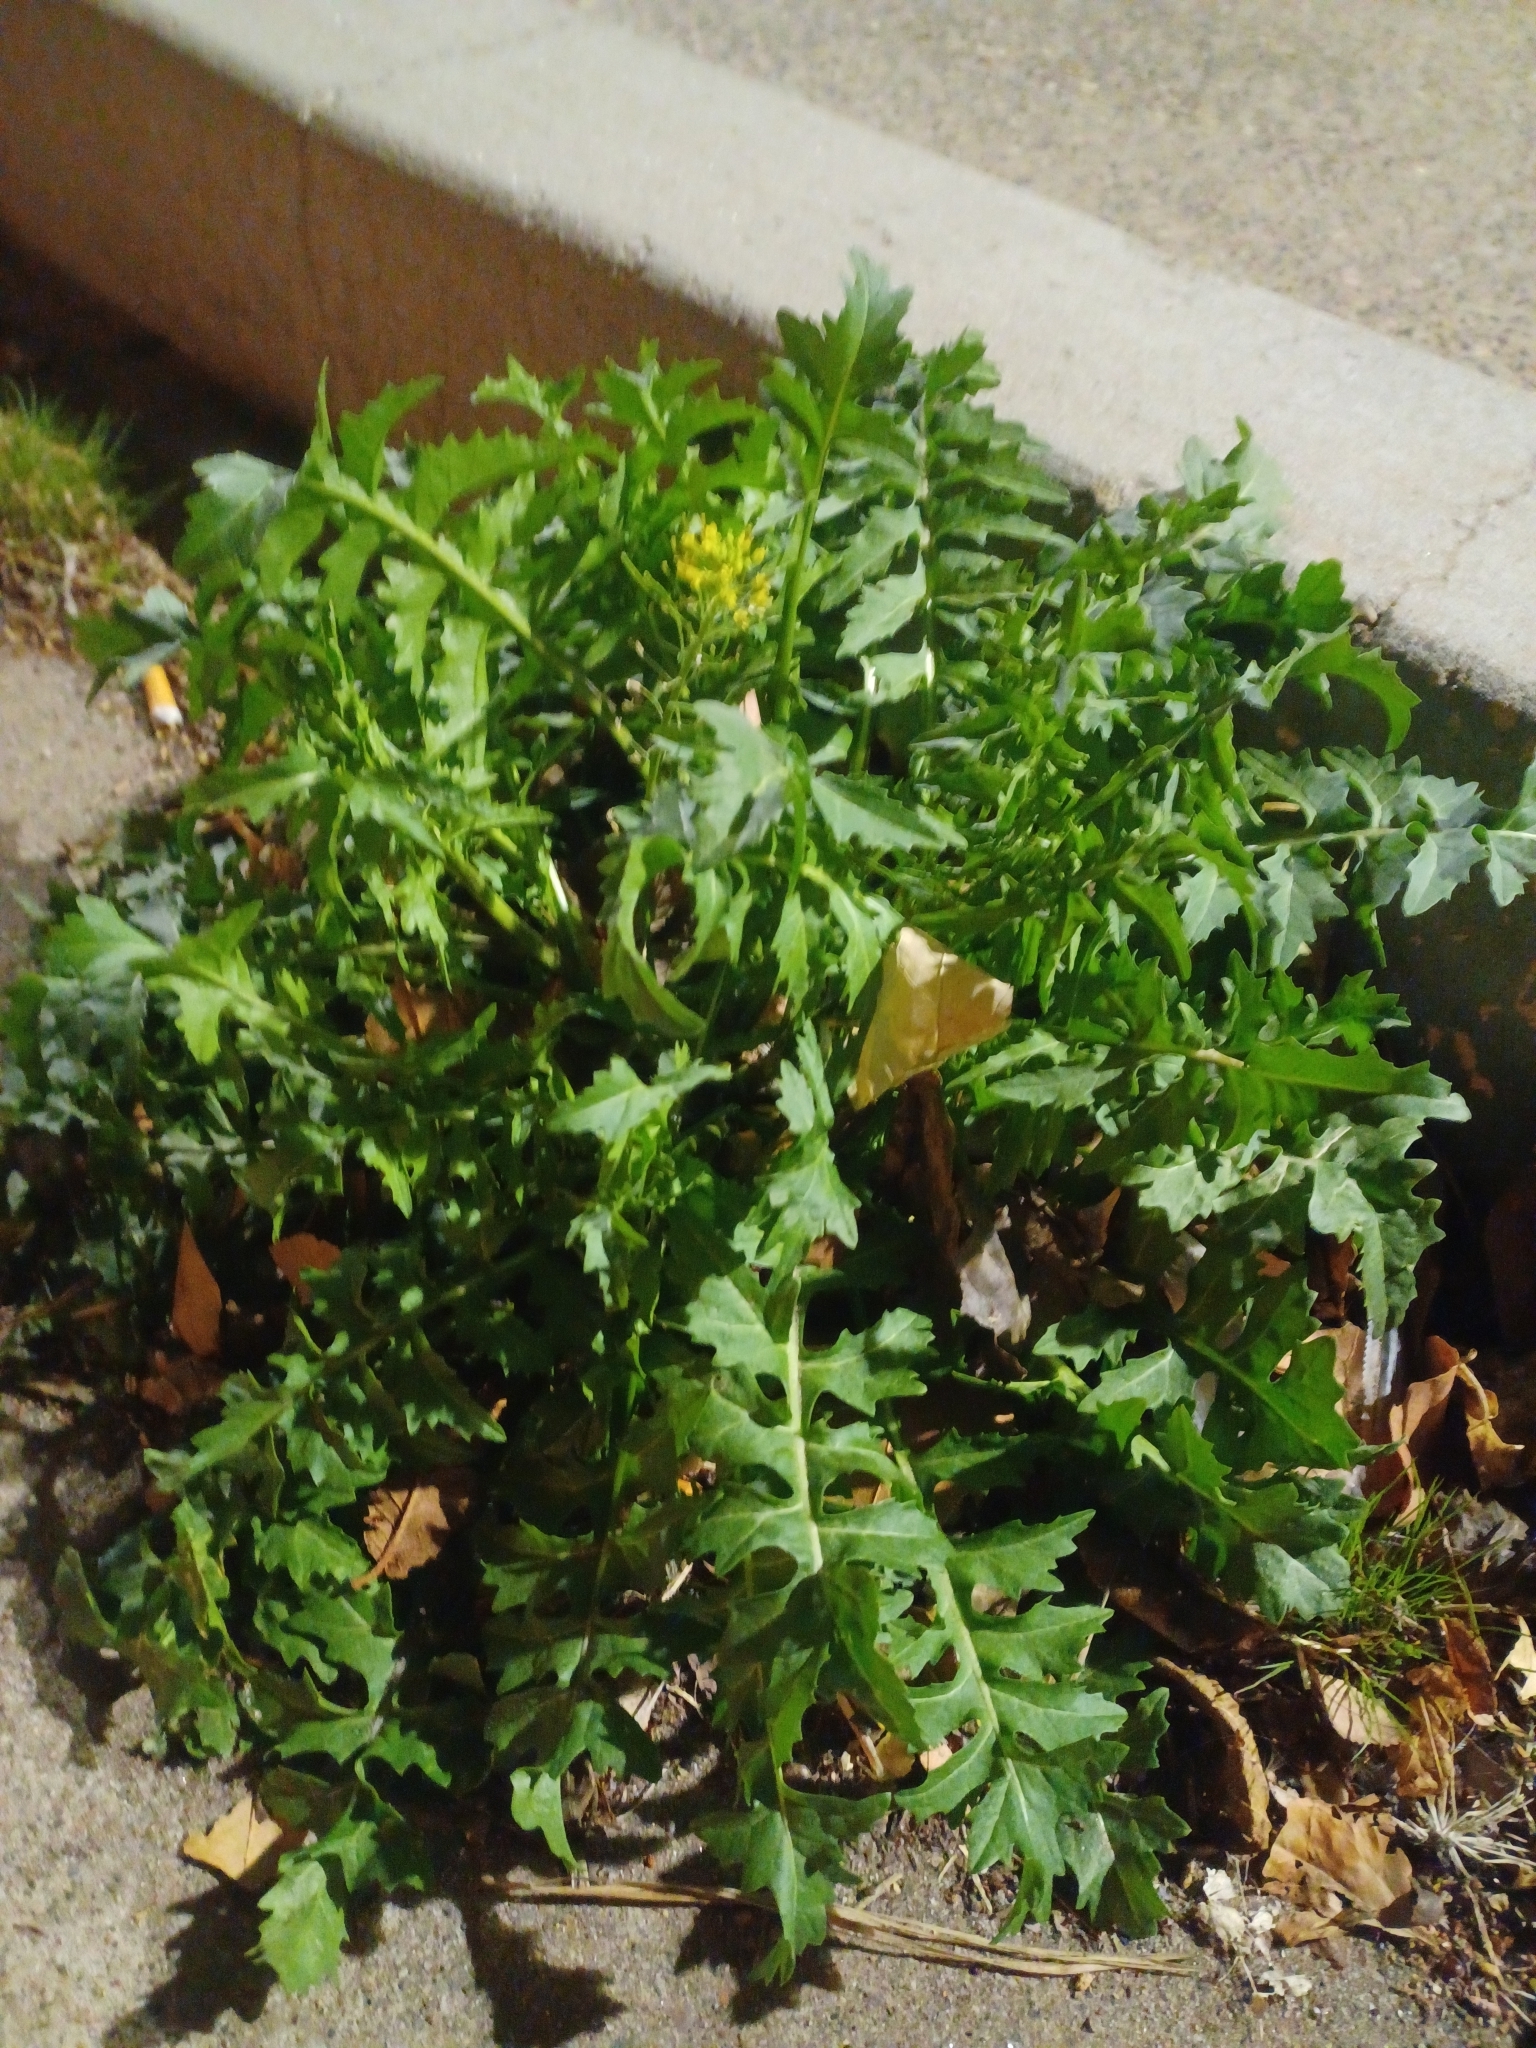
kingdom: Plantae
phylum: Tracheophyta
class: Magnoliopsida
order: Brassicales
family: Brassicaceae
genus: Sisymbrium
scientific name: Sisymbrium irio
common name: London rocket
